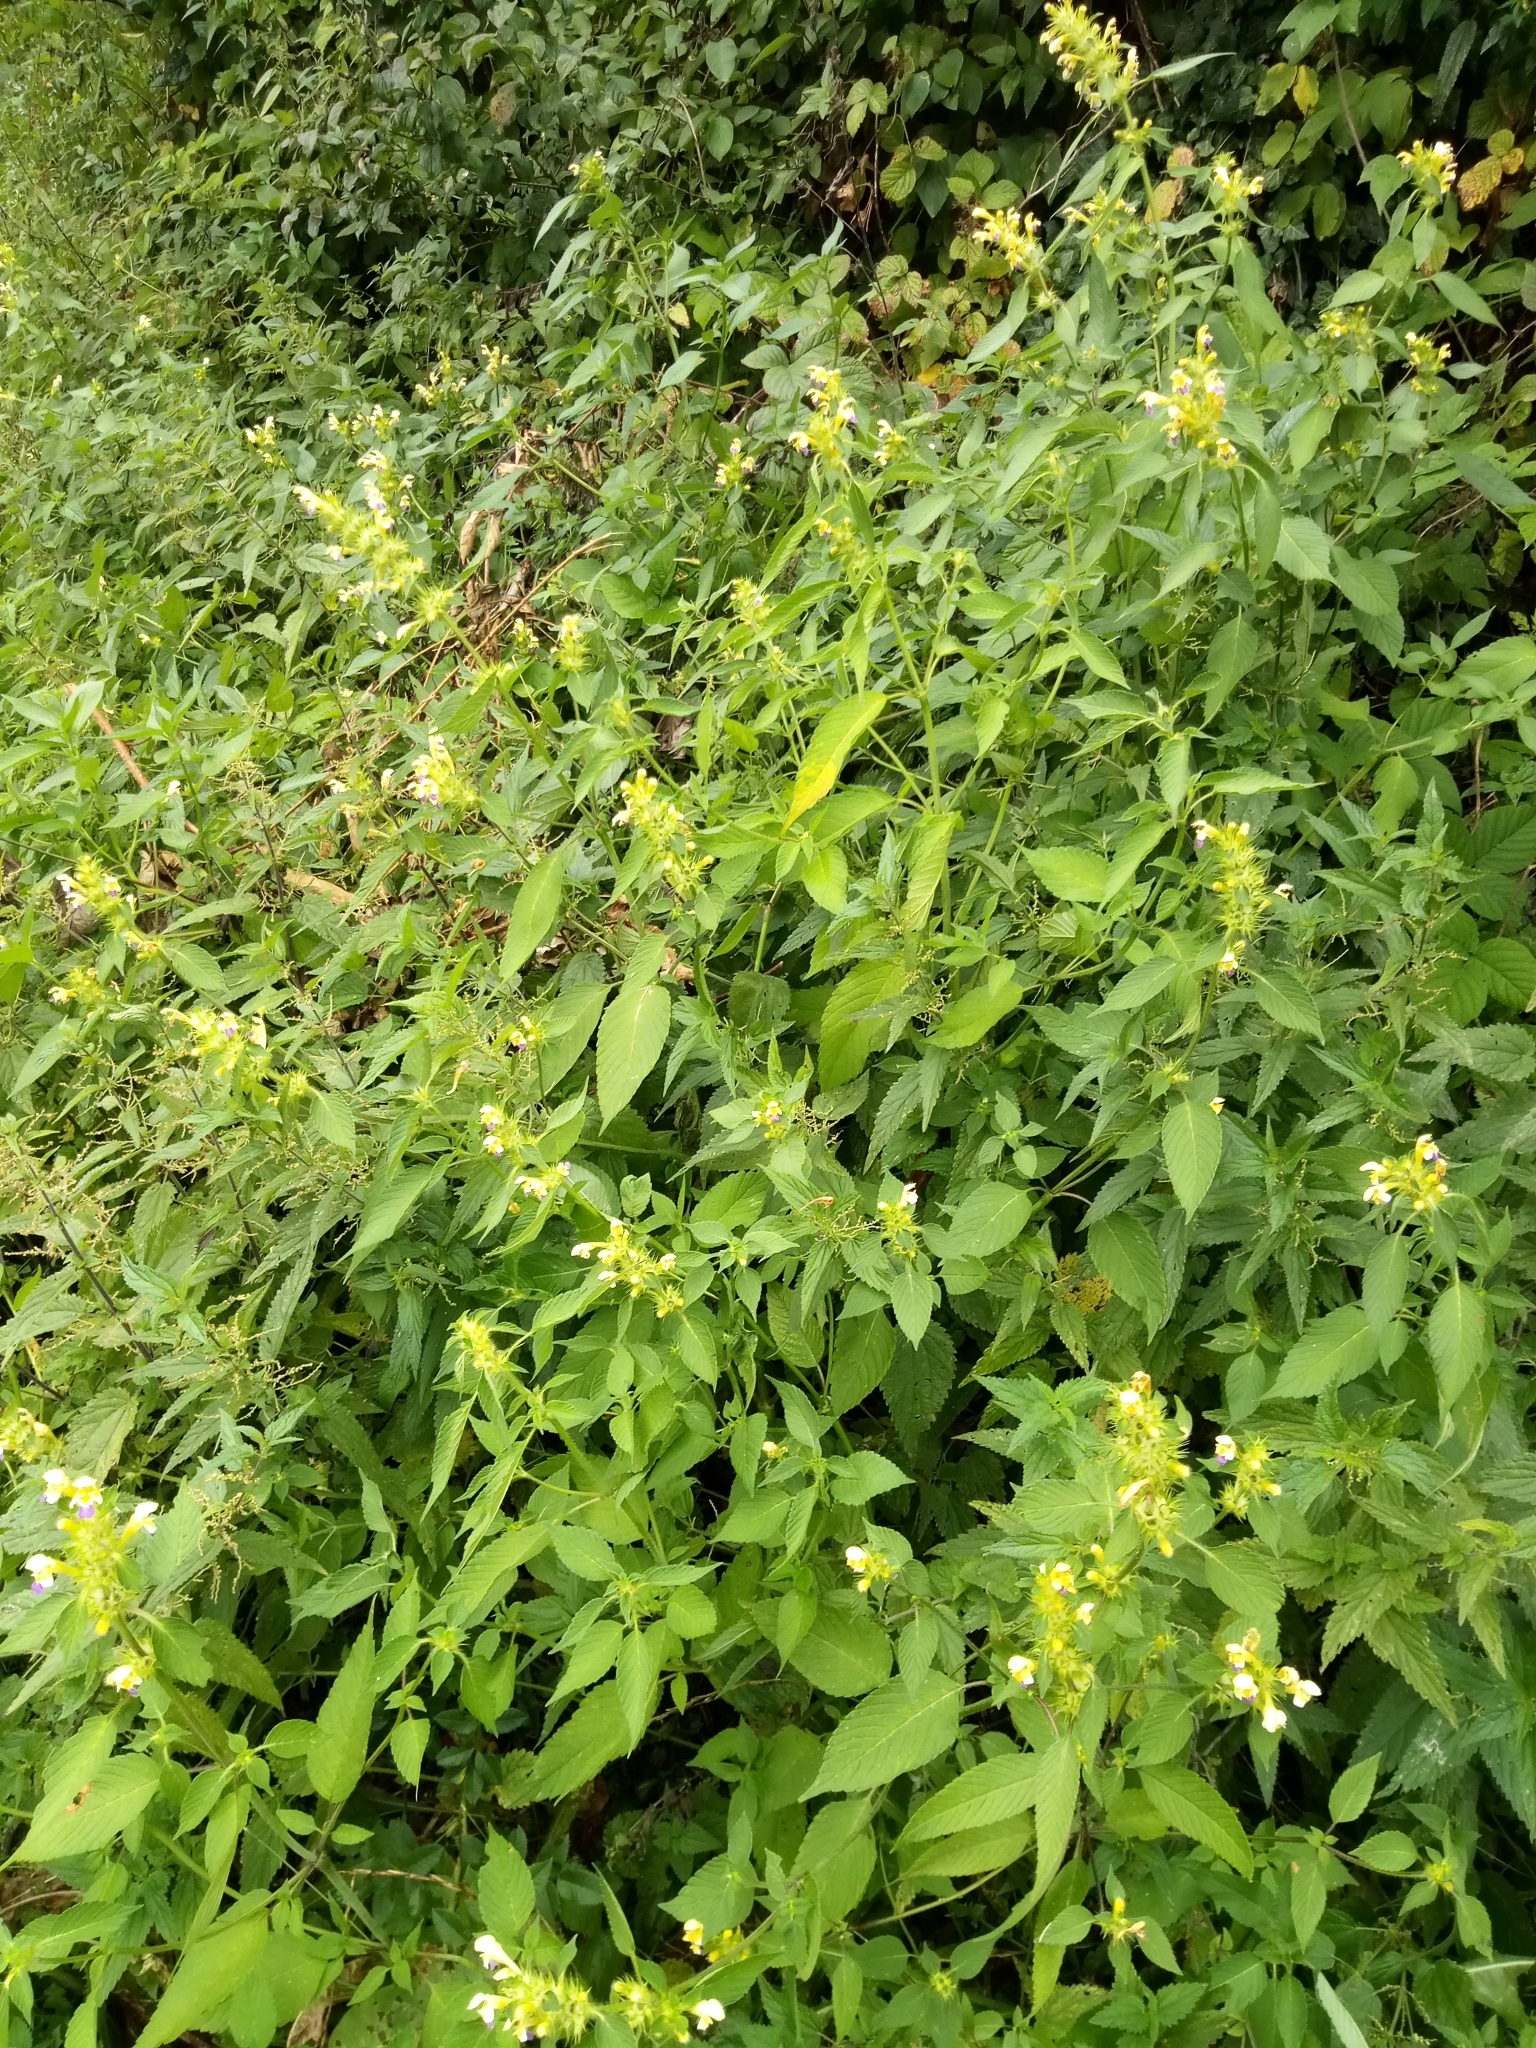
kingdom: Plantae
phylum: Tracheophyta
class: Magnoliopsida
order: Lamiales
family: Lamiaceae
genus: Galeopsis
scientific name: Galeopsis speciosa
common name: Large-flowered hemp-nettle
